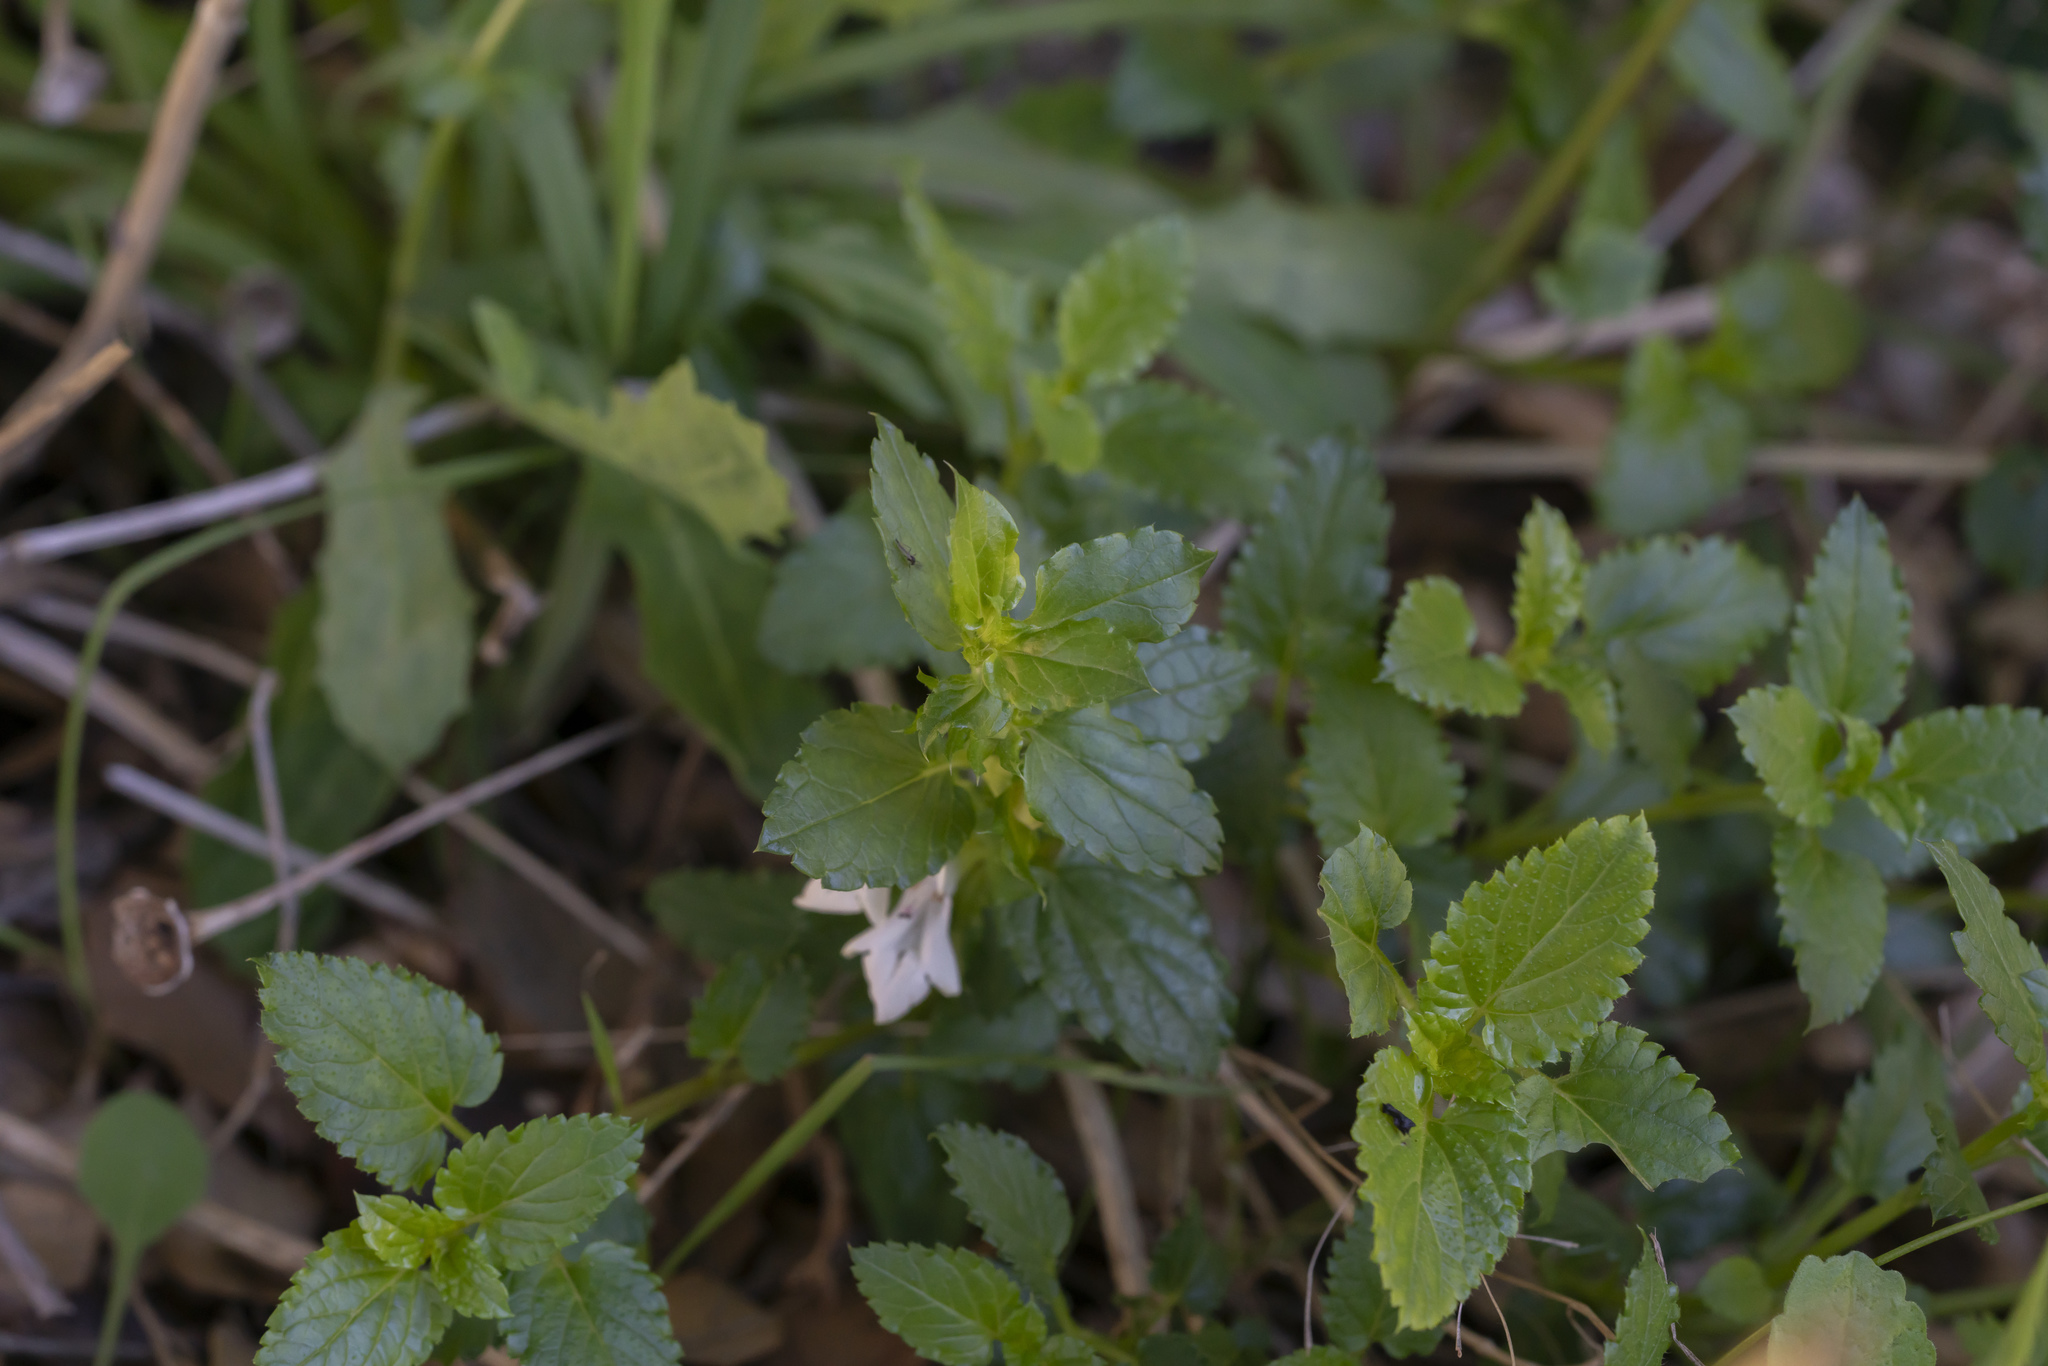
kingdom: Plantae
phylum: Tracheophyta
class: Magnoliopsida
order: Lamiales
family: Lamiaceae
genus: Prasium
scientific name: Prasium majus
